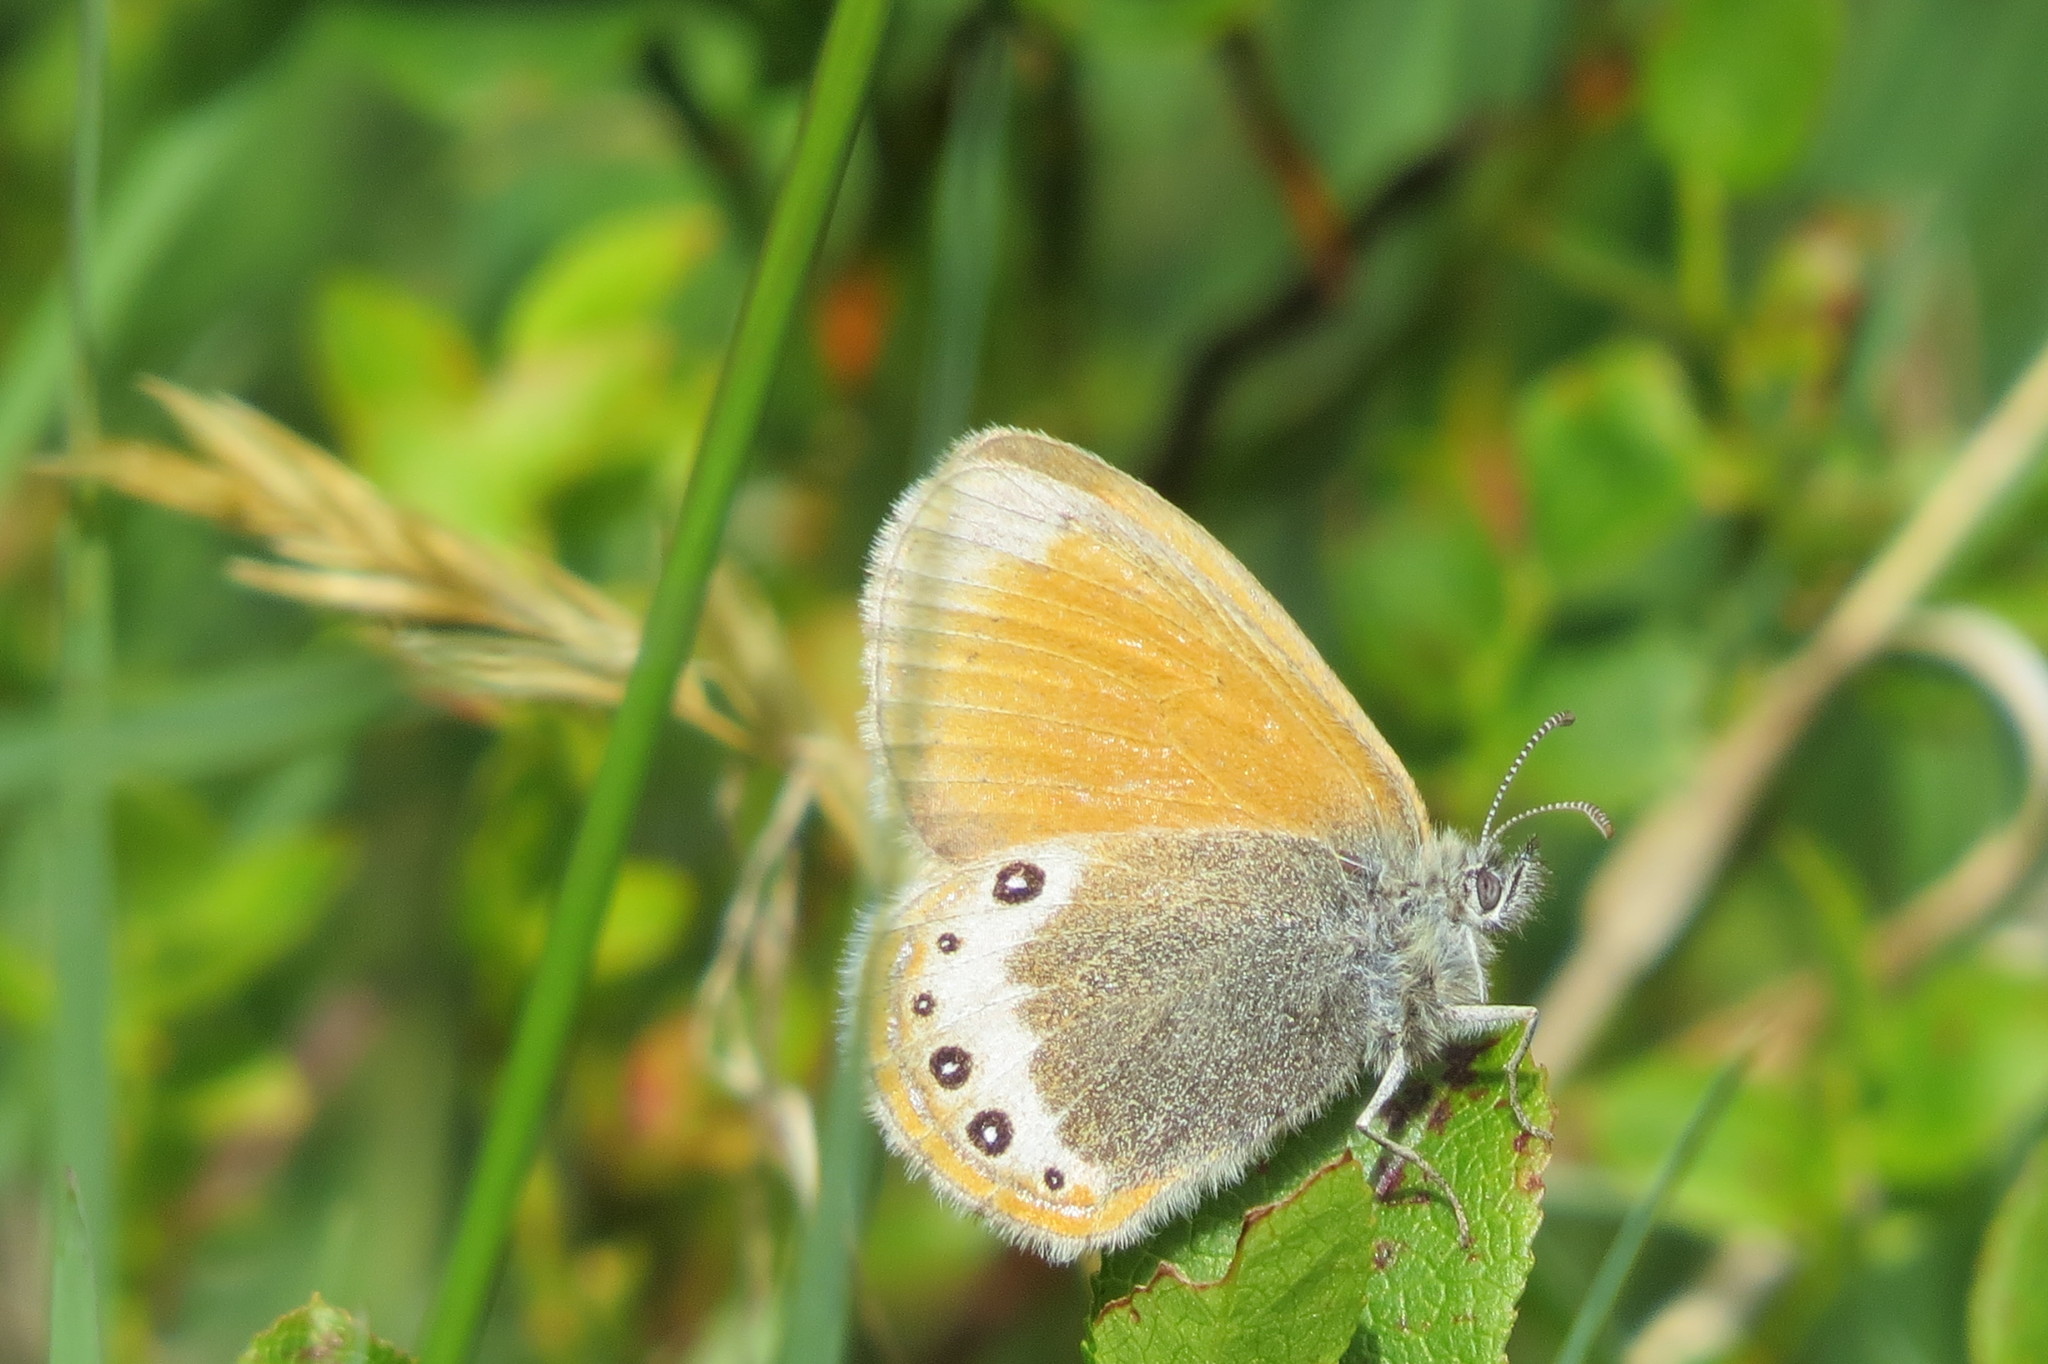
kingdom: Animalia
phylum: Arthropoda
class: Insecta
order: Lepidoptera
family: Nymphalidae
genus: Coenonympha
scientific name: Coenonympha
